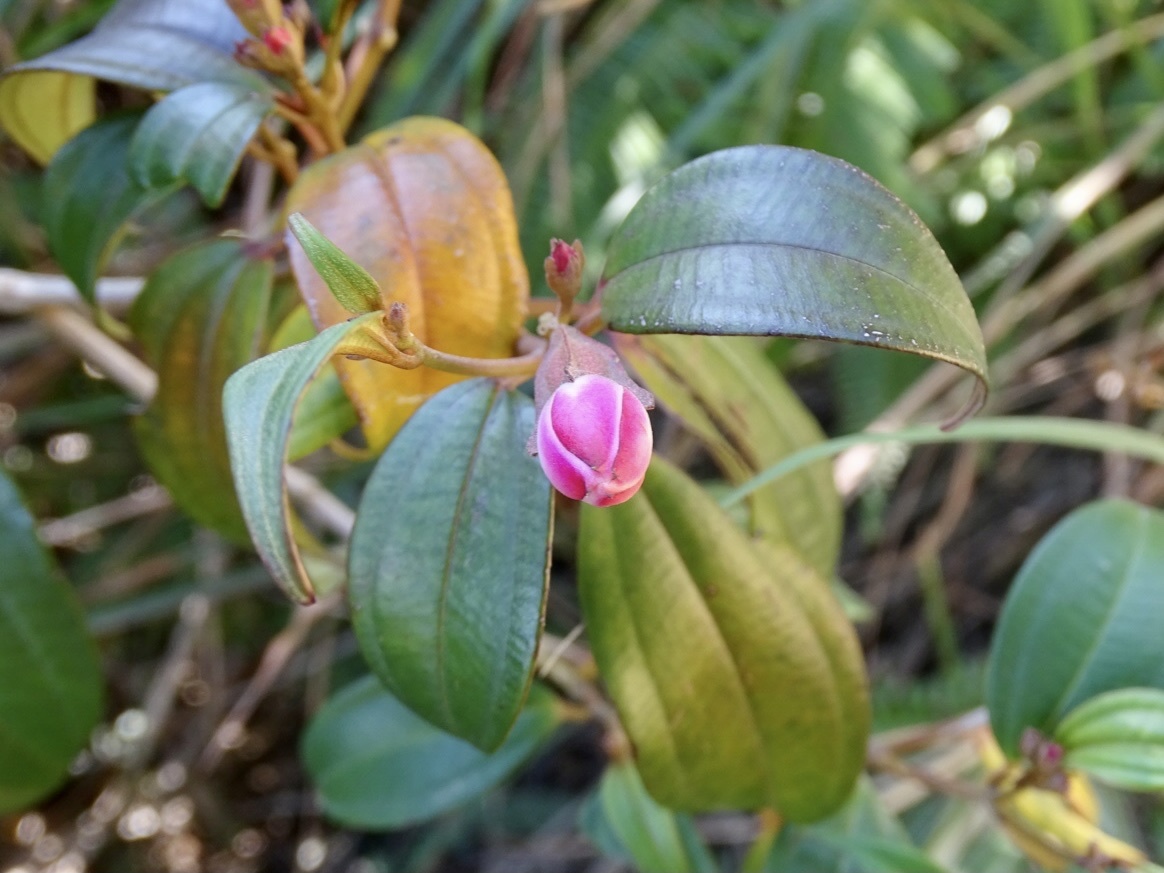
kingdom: Plantae
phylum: Tracheophyta
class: Magnoliopsida
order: Myrtales
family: Melastomataceae
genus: Barthea
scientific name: Barthea barthei
